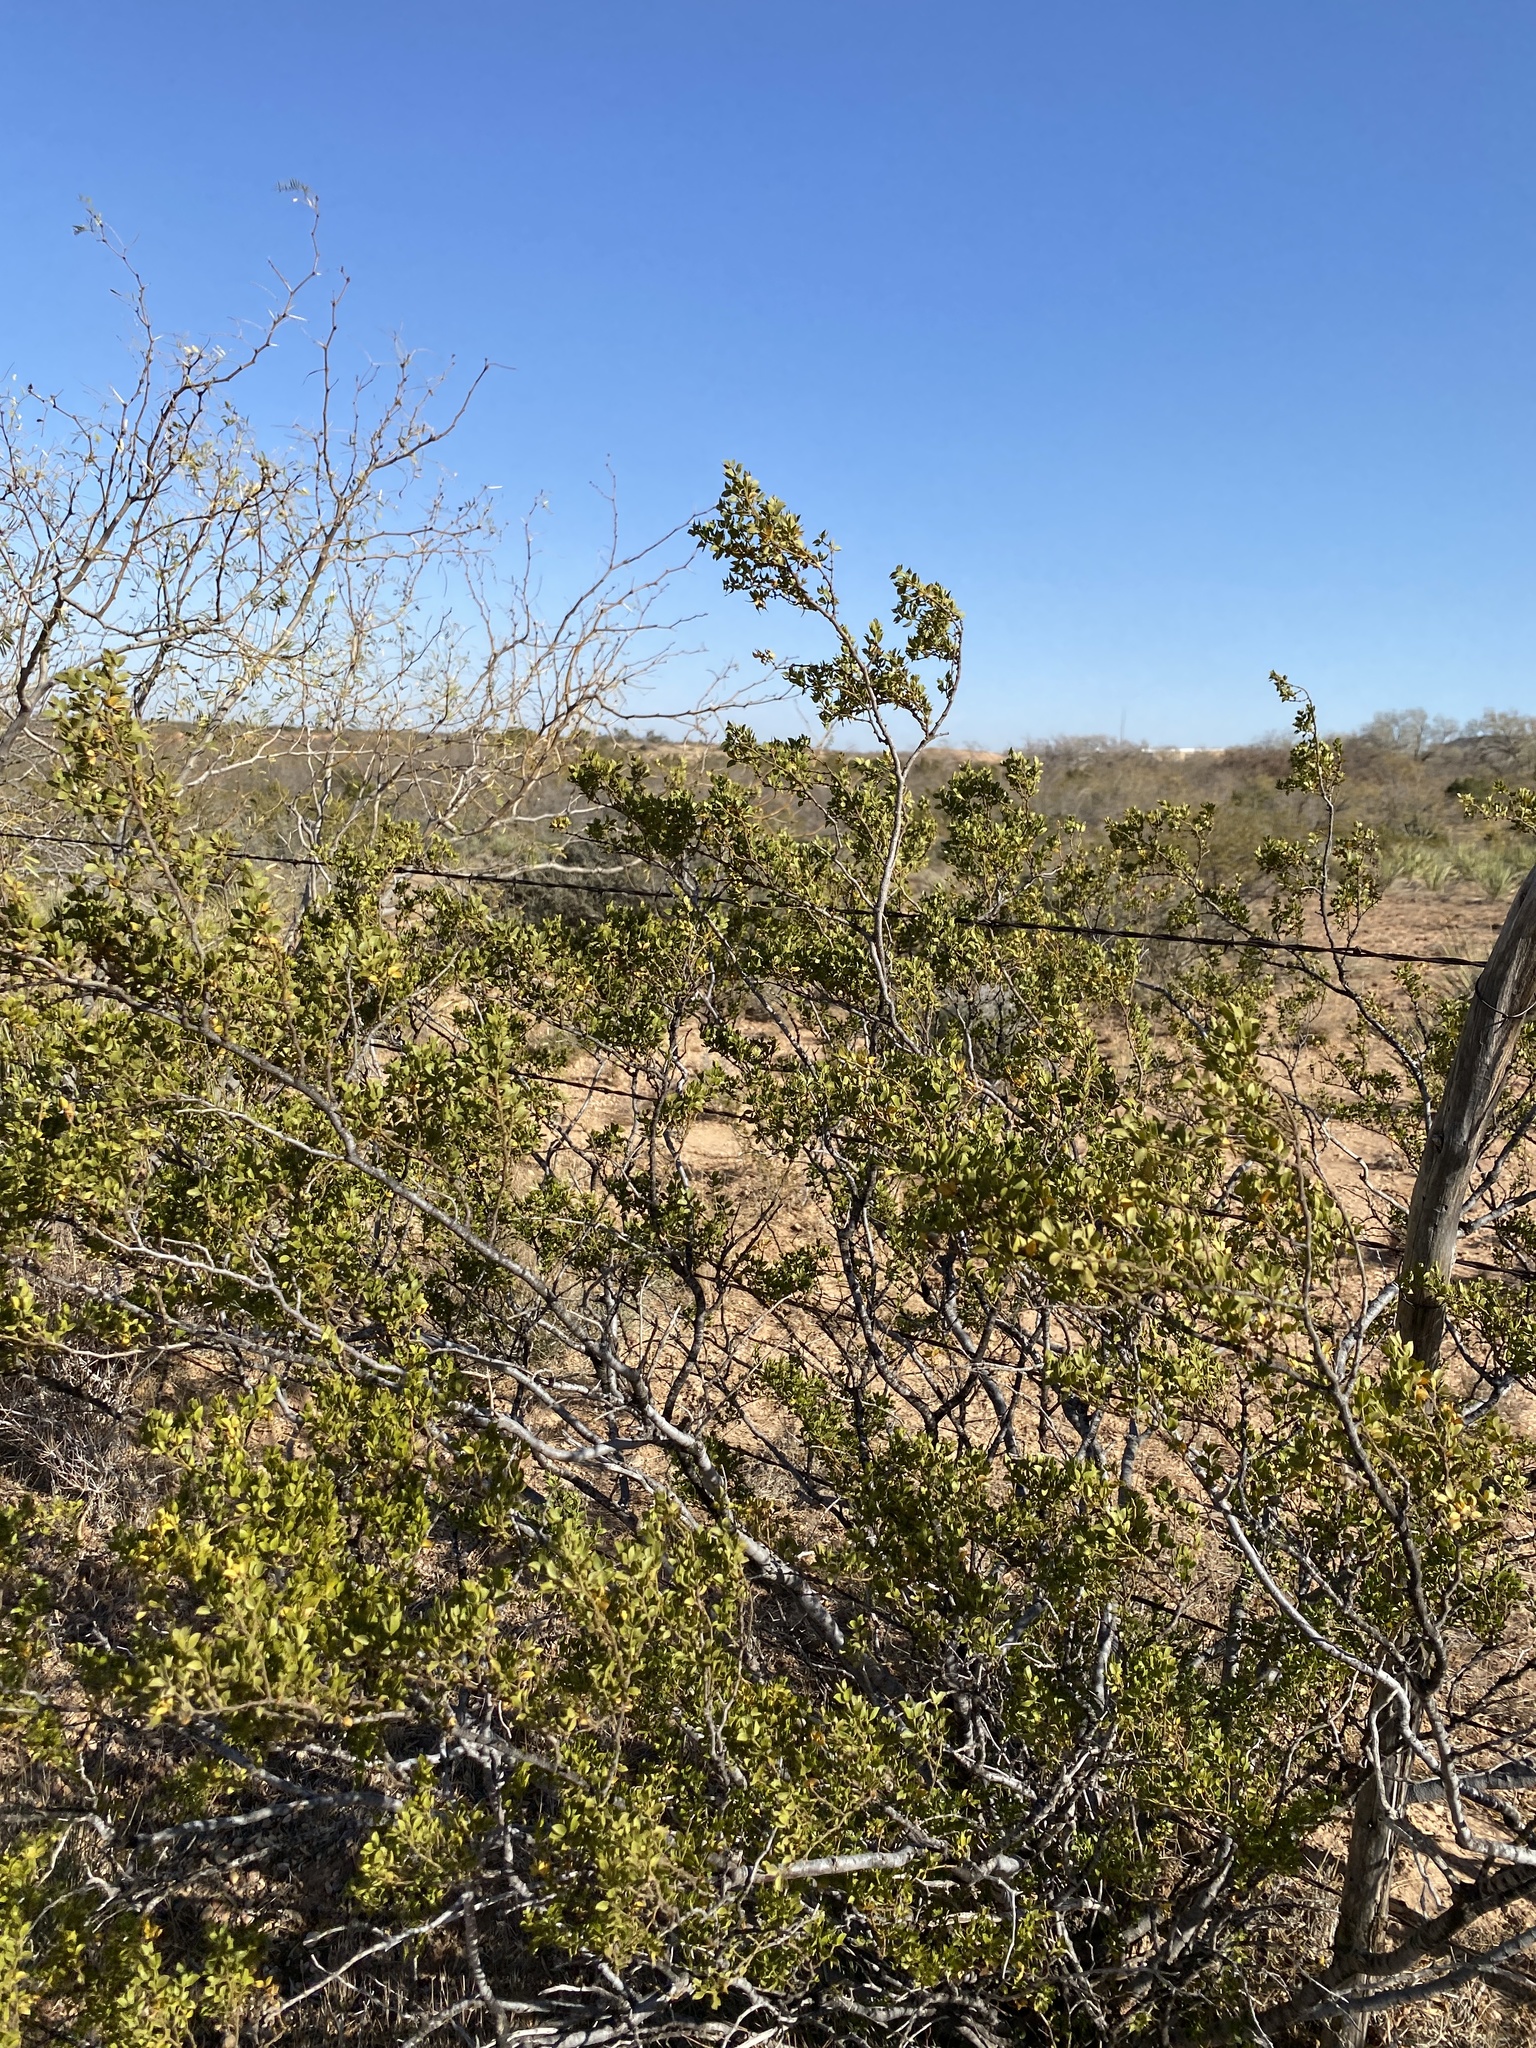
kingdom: Plantae
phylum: Tracheophyta
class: Magnoliopsida
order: Zygophyllales
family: Zygophyllaceae
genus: Larrea
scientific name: Larrea tridentata
